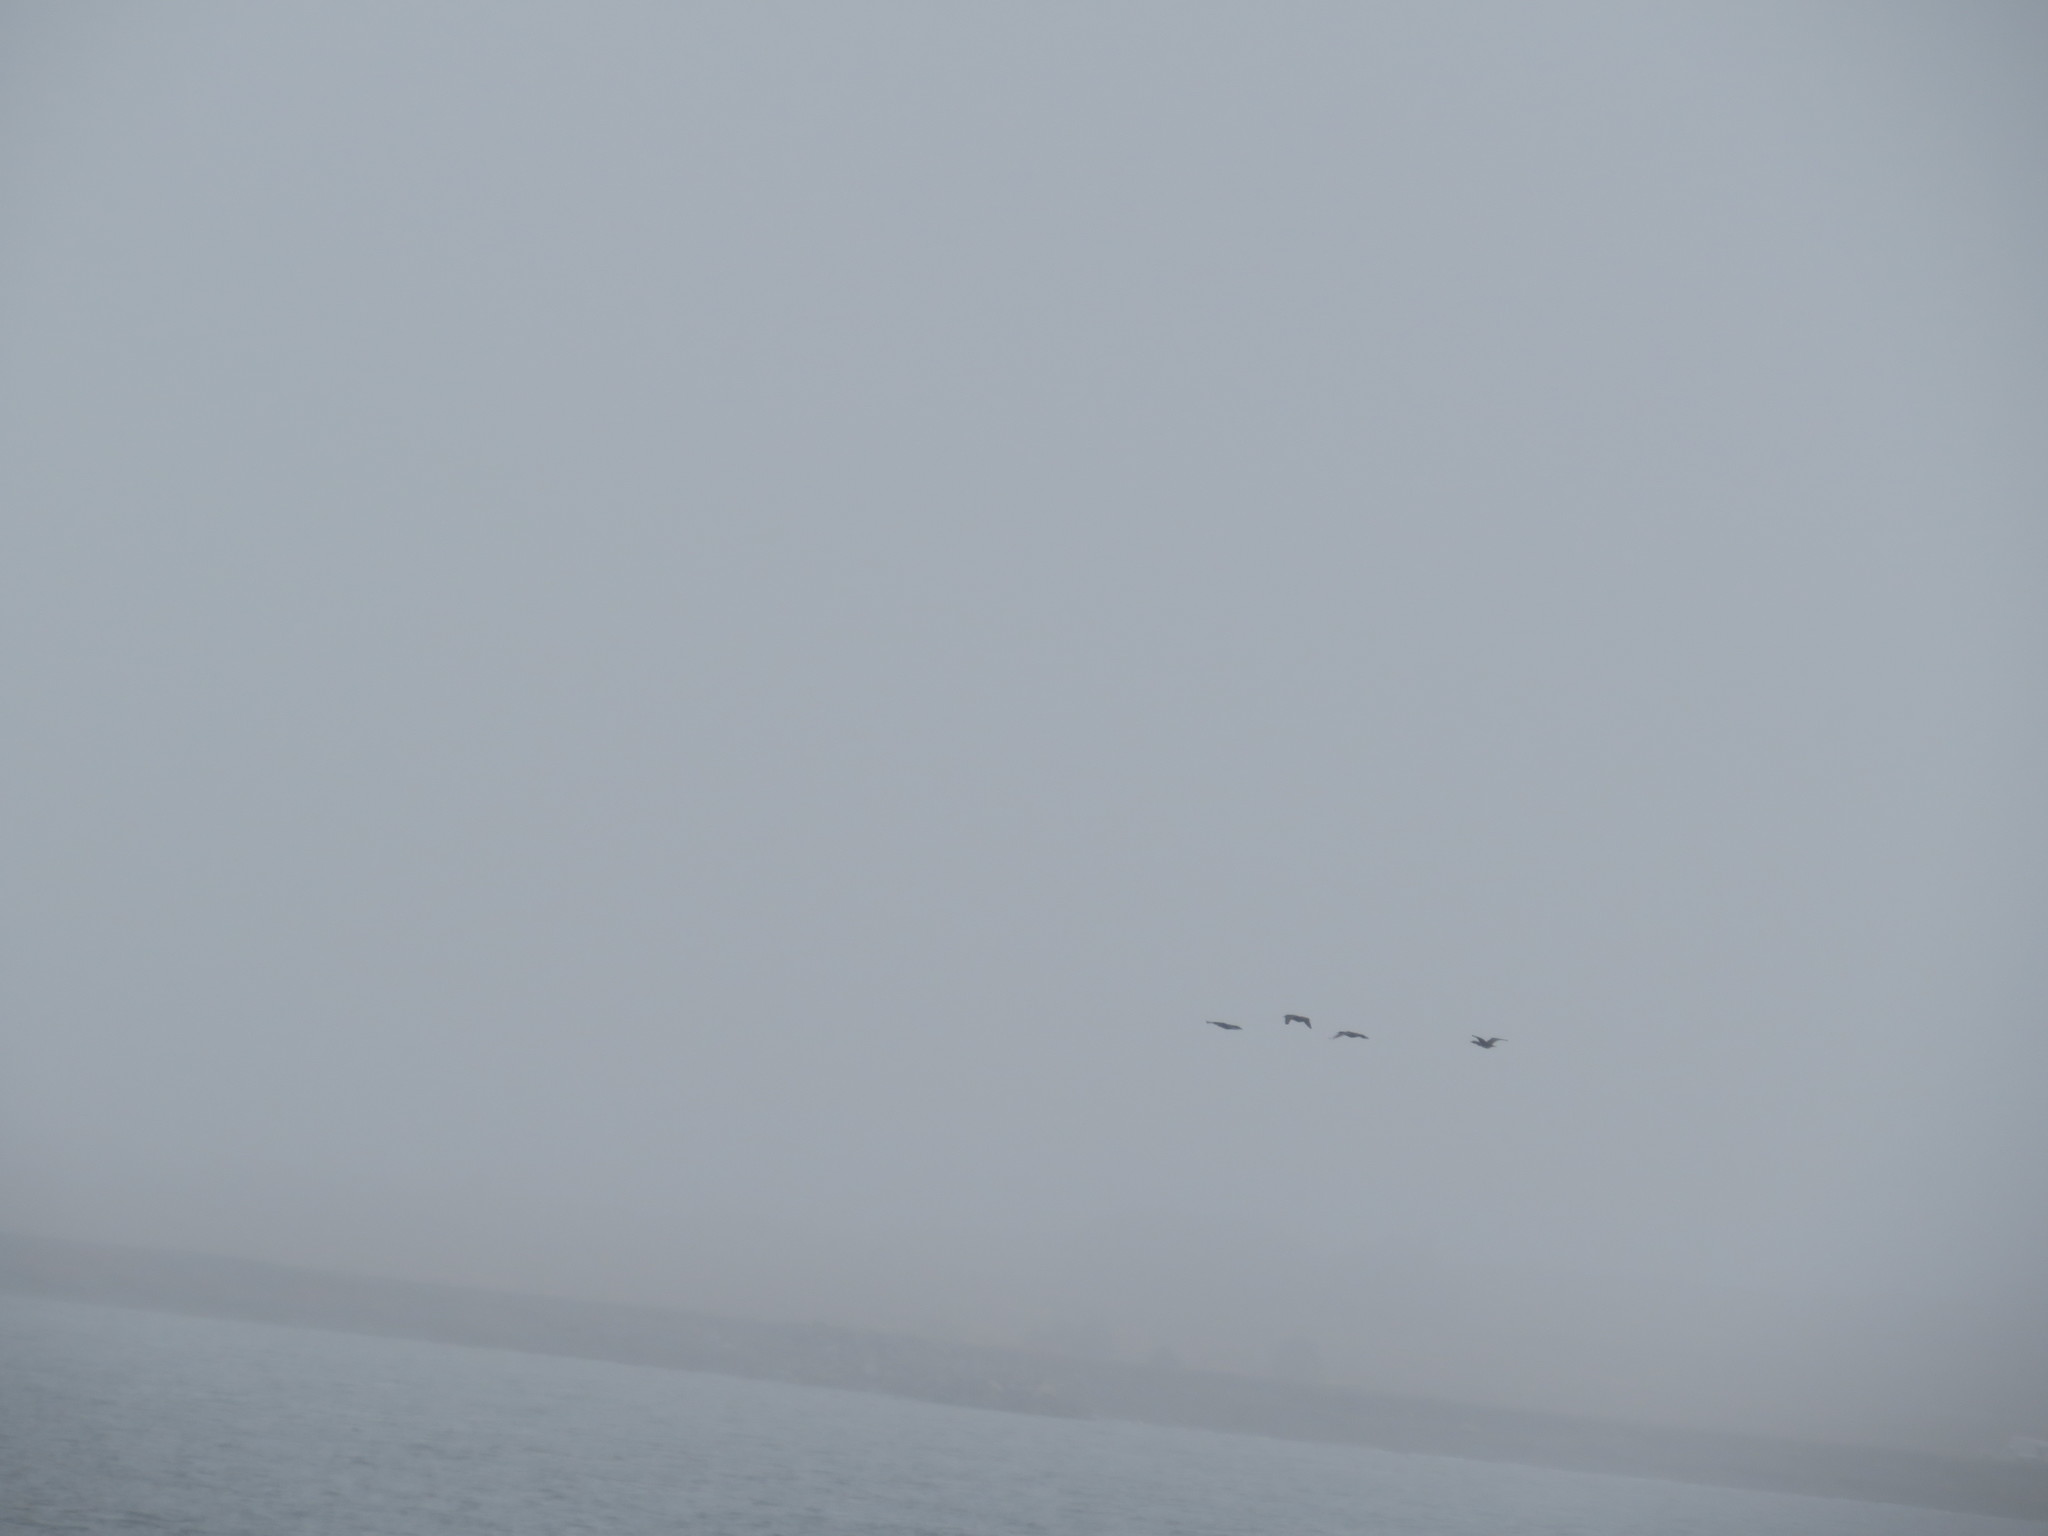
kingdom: Animalia
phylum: Chordata
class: Aves
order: Anseriformes
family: Anatidae
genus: Branta
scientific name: Branta canadensis
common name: Canada goose
